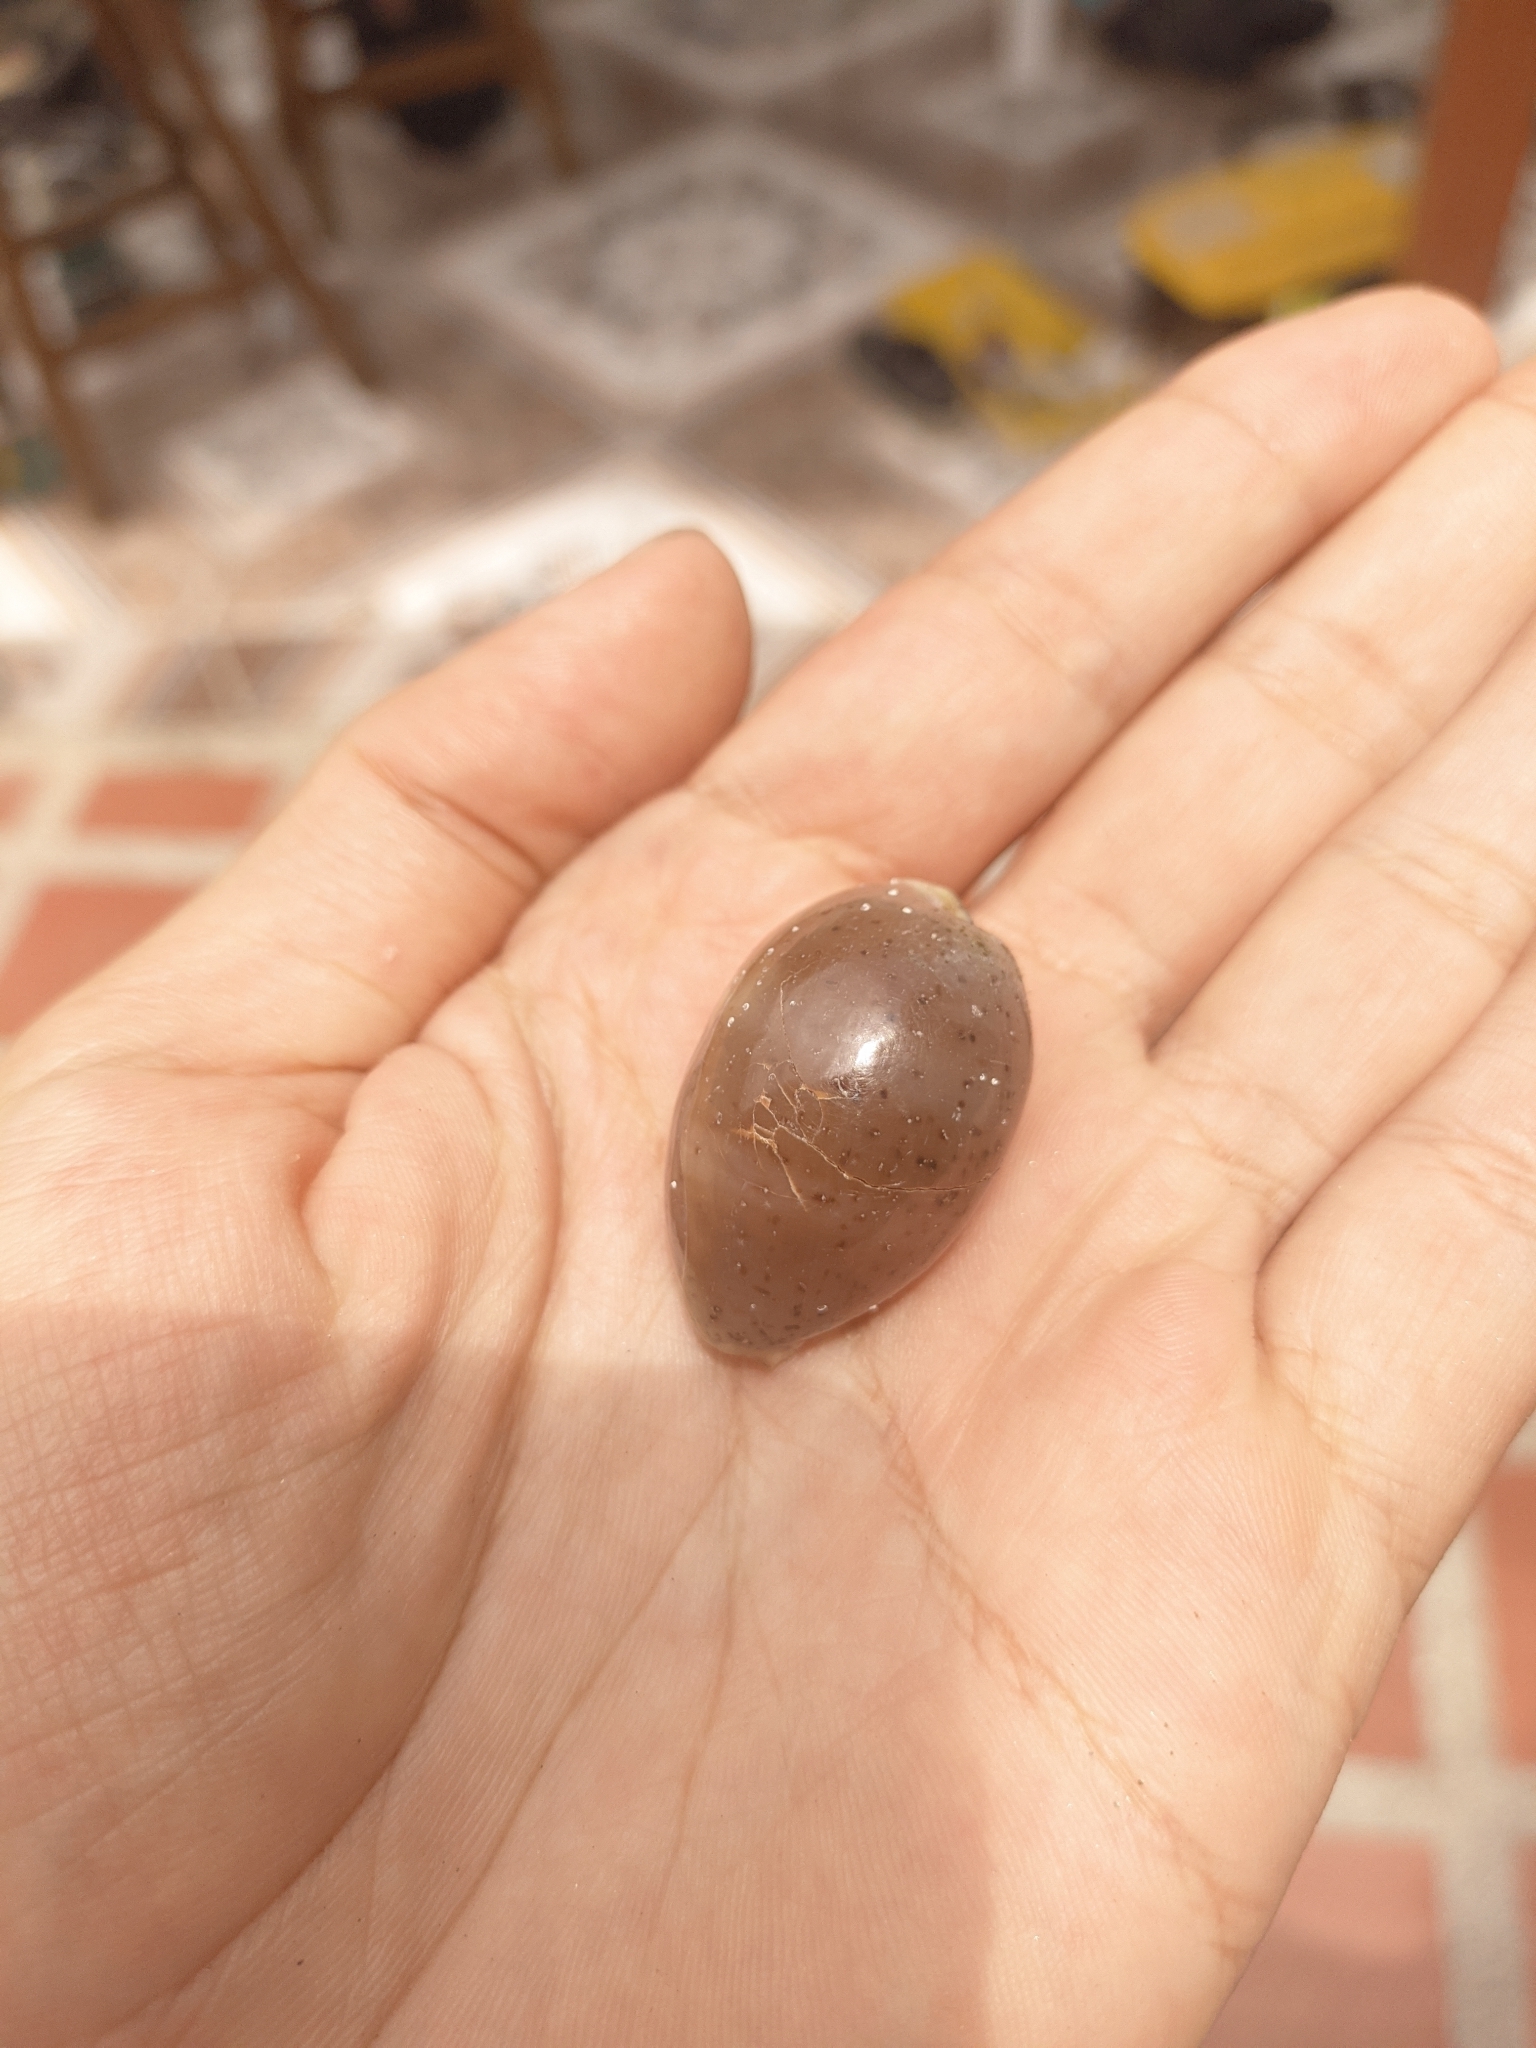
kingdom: Animalia
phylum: Mollusca
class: Gastropoda
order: Littorinimorpha
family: Cypraeidae
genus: Luria
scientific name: Luria cinerea
